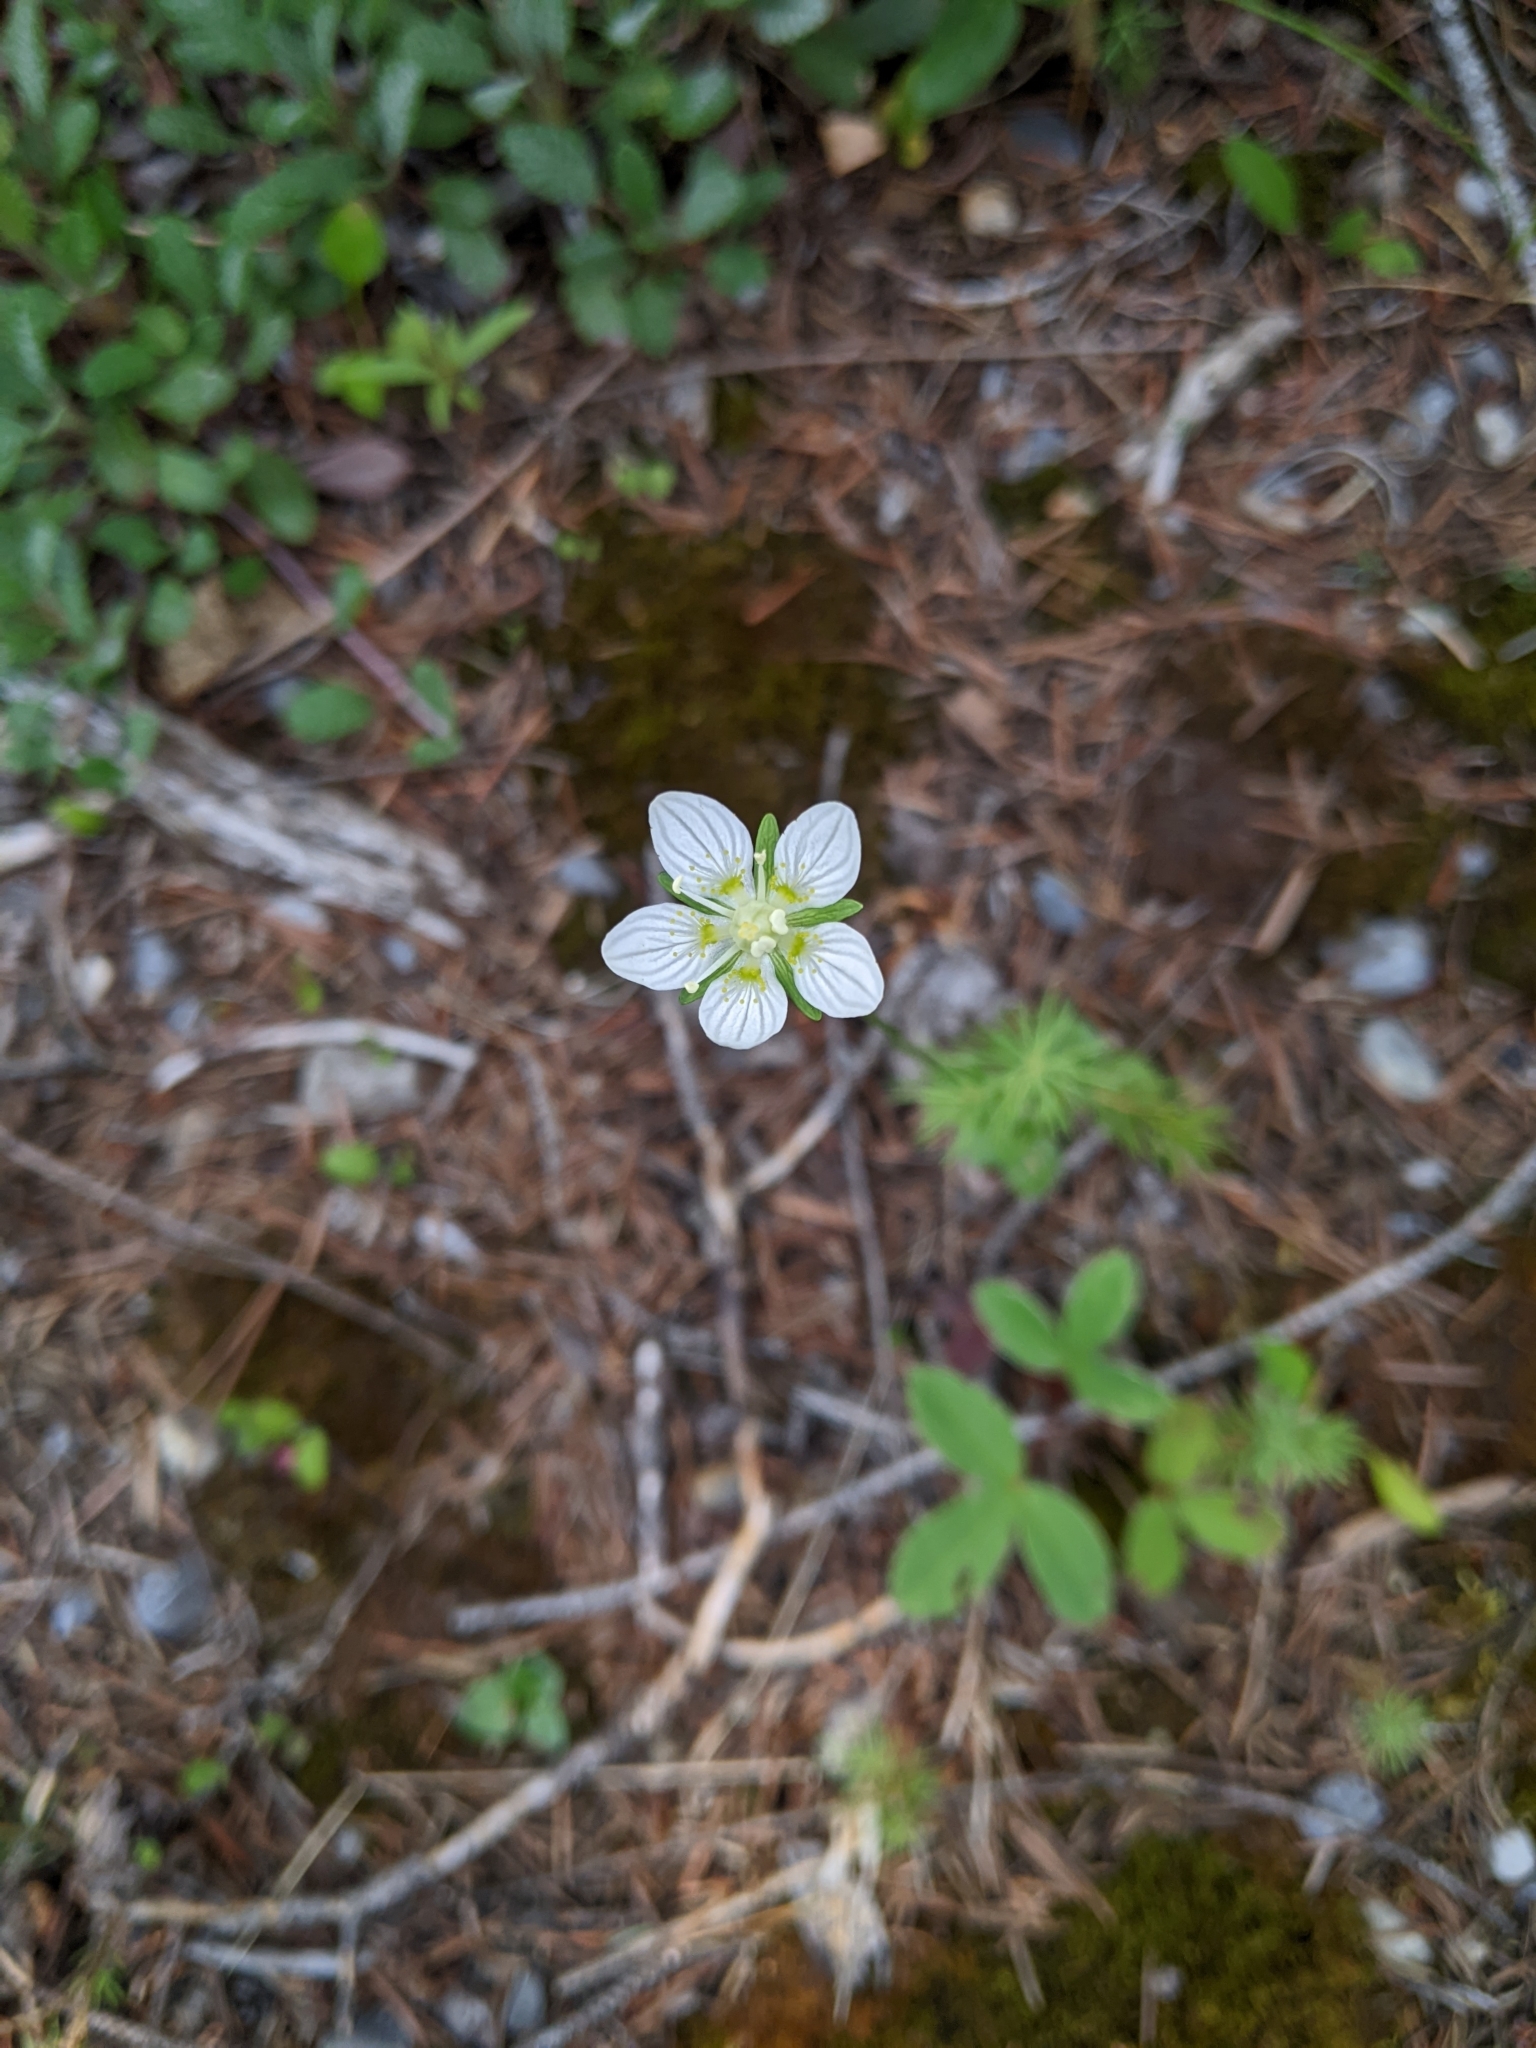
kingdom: Plantae
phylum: Tracheophyta
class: Magnoliopsida
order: Celastrales
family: Parnassiaceae
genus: Parnassia
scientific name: Parnassia palustris
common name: Grass-of-parnassus
